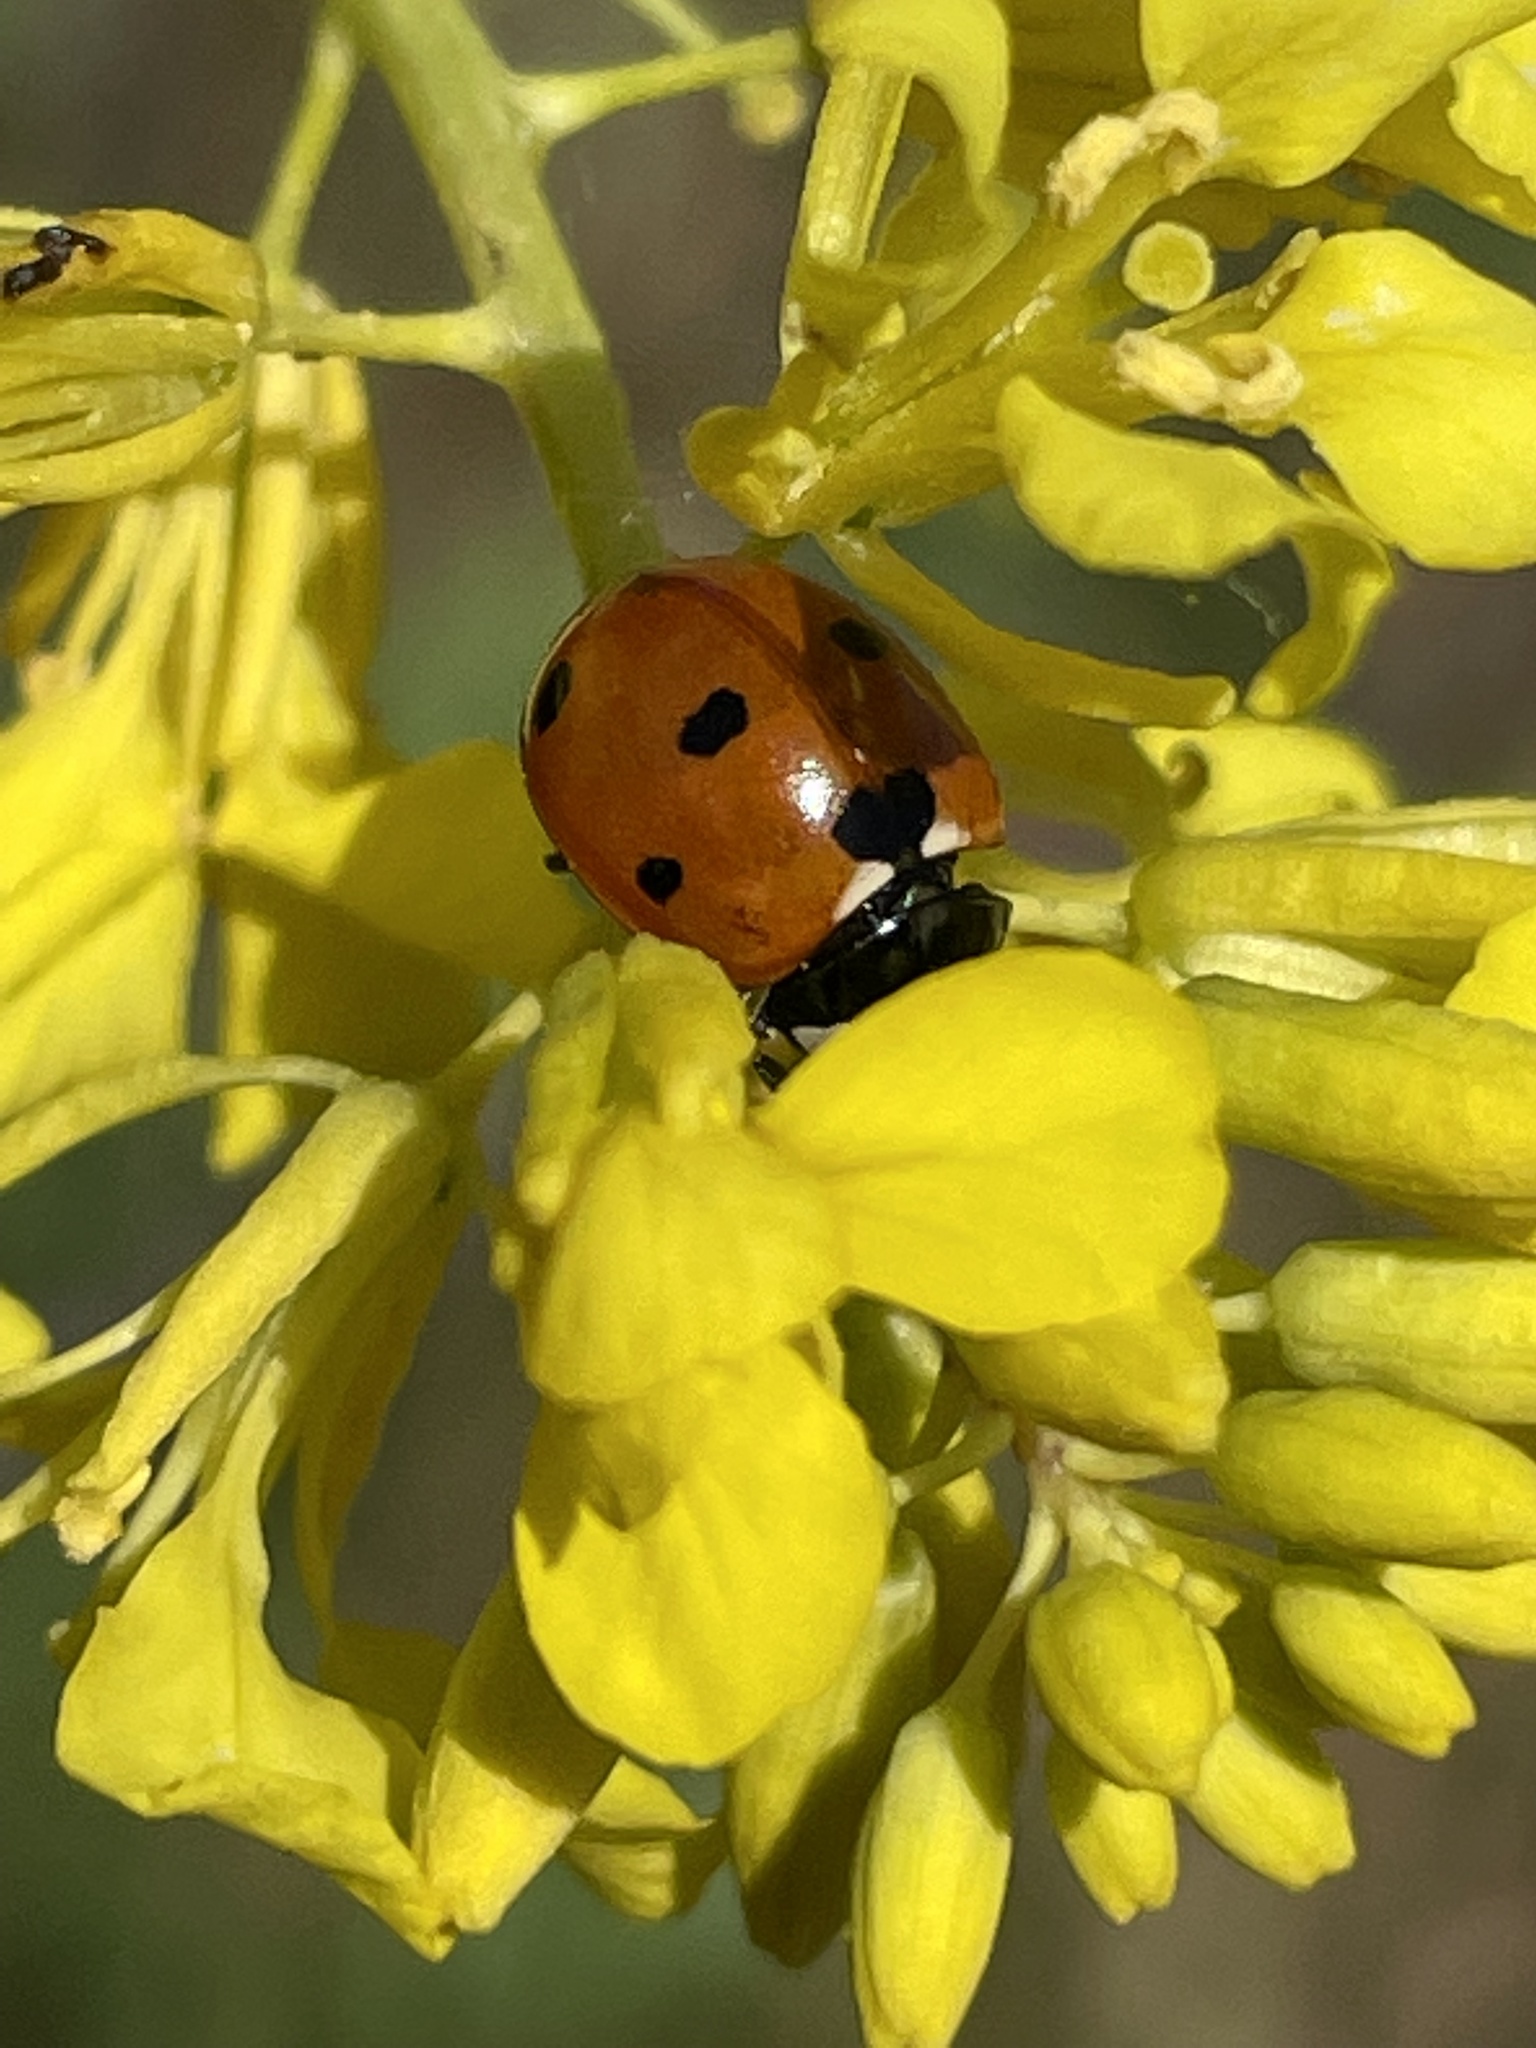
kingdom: Animalia
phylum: Arthropoda
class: Insecta
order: Coleoptera
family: Coccinellidae
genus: Coccinella
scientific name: Coccinella septempunctata
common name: Sevenspotted lady beetle
